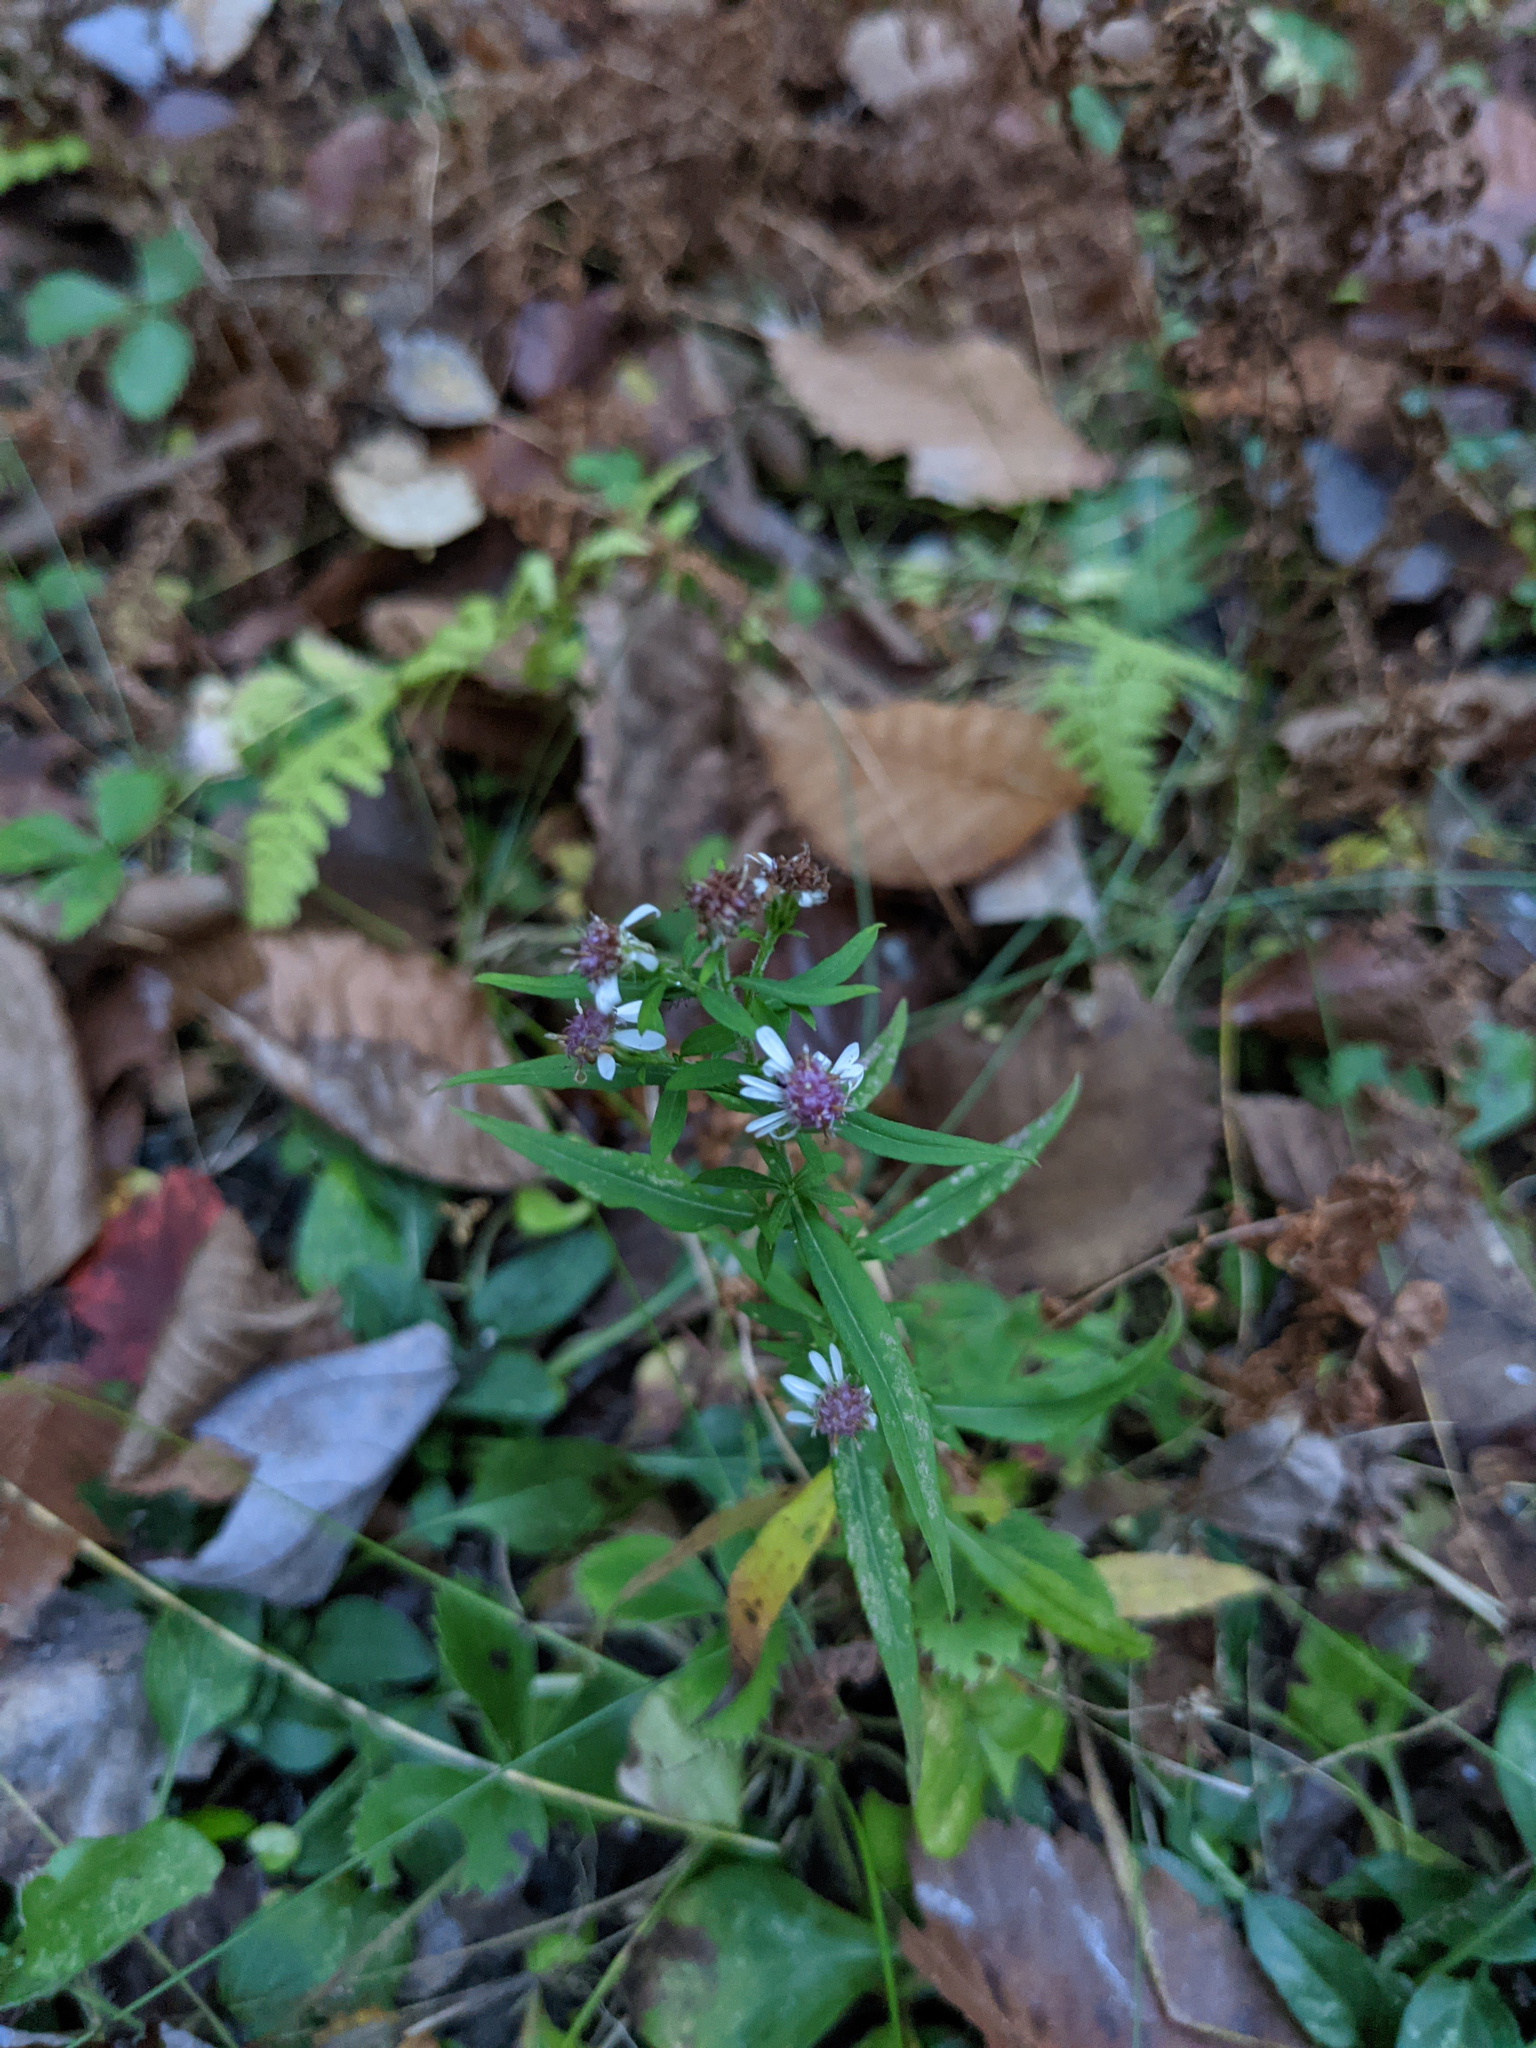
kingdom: Plantae
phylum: Tracheophyta
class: Magnoliopsida
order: Asterales
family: Asteraceae
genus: Symphyotrichum
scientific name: Symphyotrichum lateriflorum
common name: Calico aster
